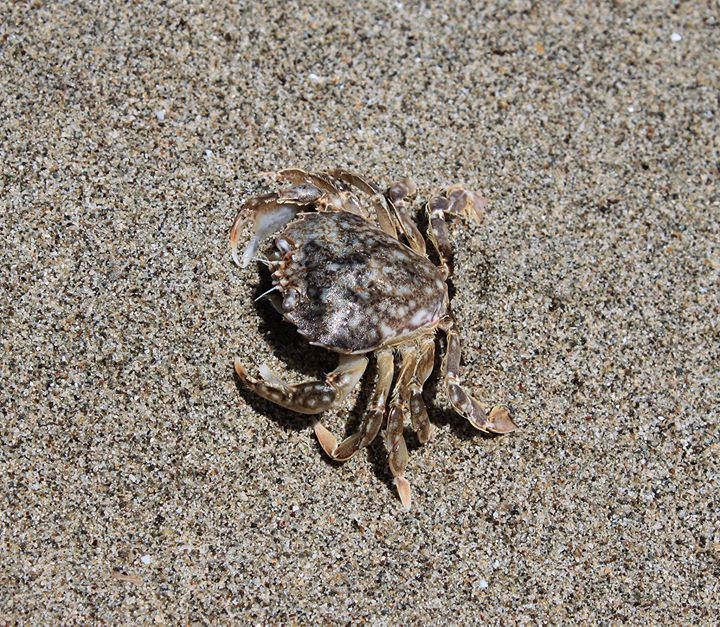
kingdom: Animalia
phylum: Arthropoda
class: Malacostraca
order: Decapoda
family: Carcinidae
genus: Portumnus
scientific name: Portumnus latipes
